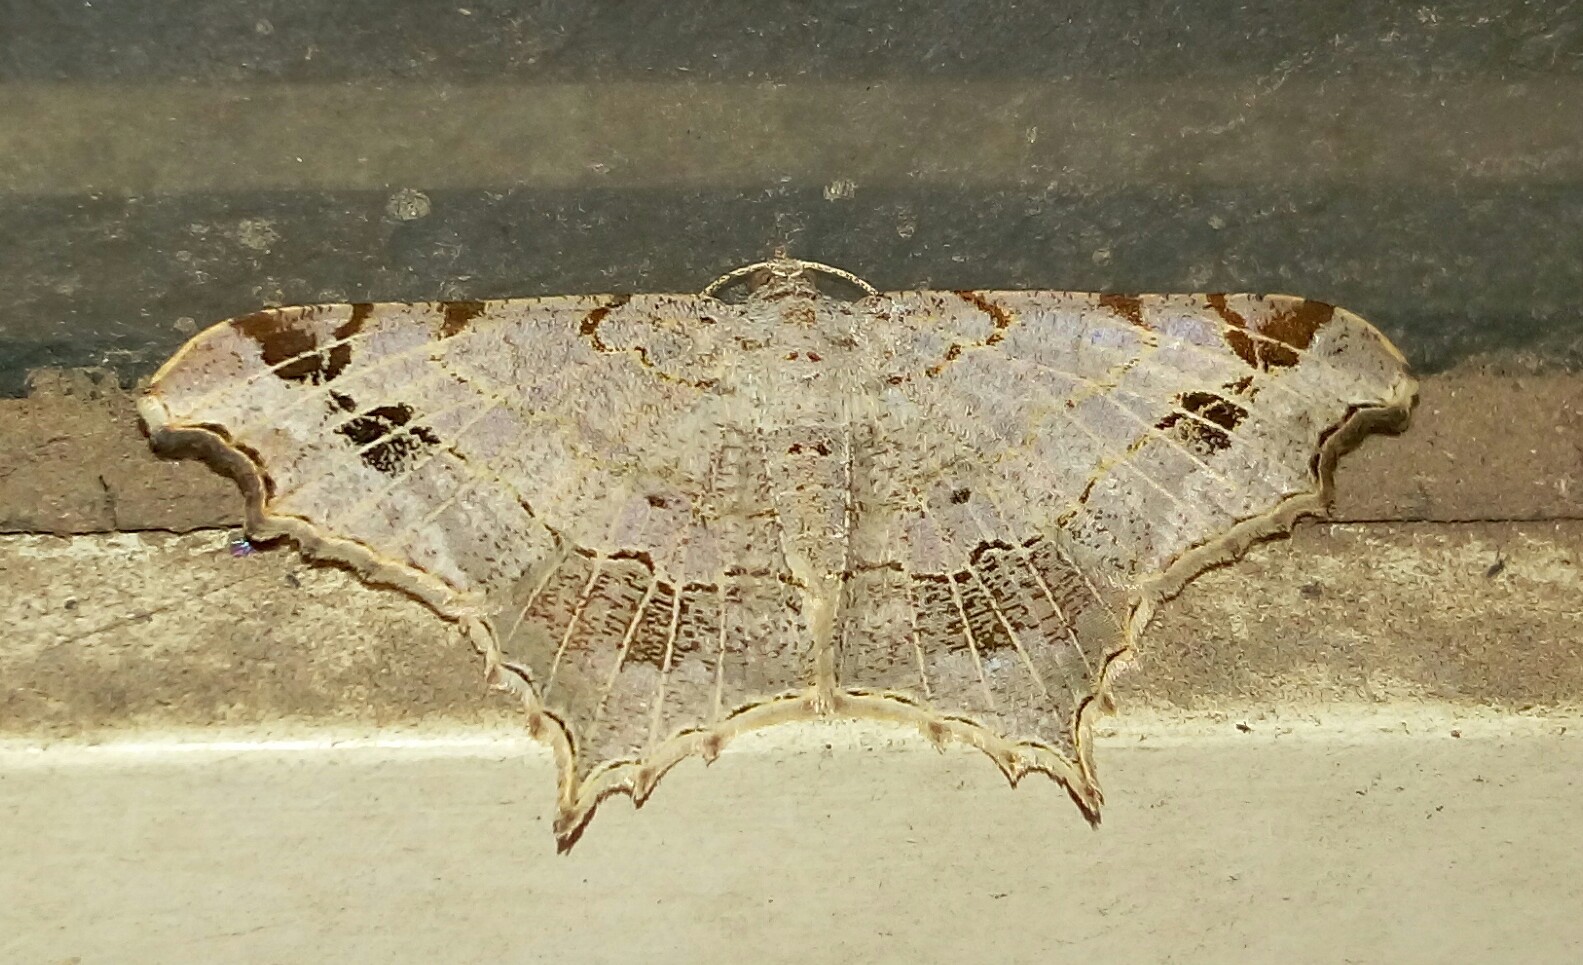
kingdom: Animalia
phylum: Arthropoda
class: Insecta
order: Lepidoptera
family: Geometridae
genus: Chiasmia
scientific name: Chiasmia emersaria
